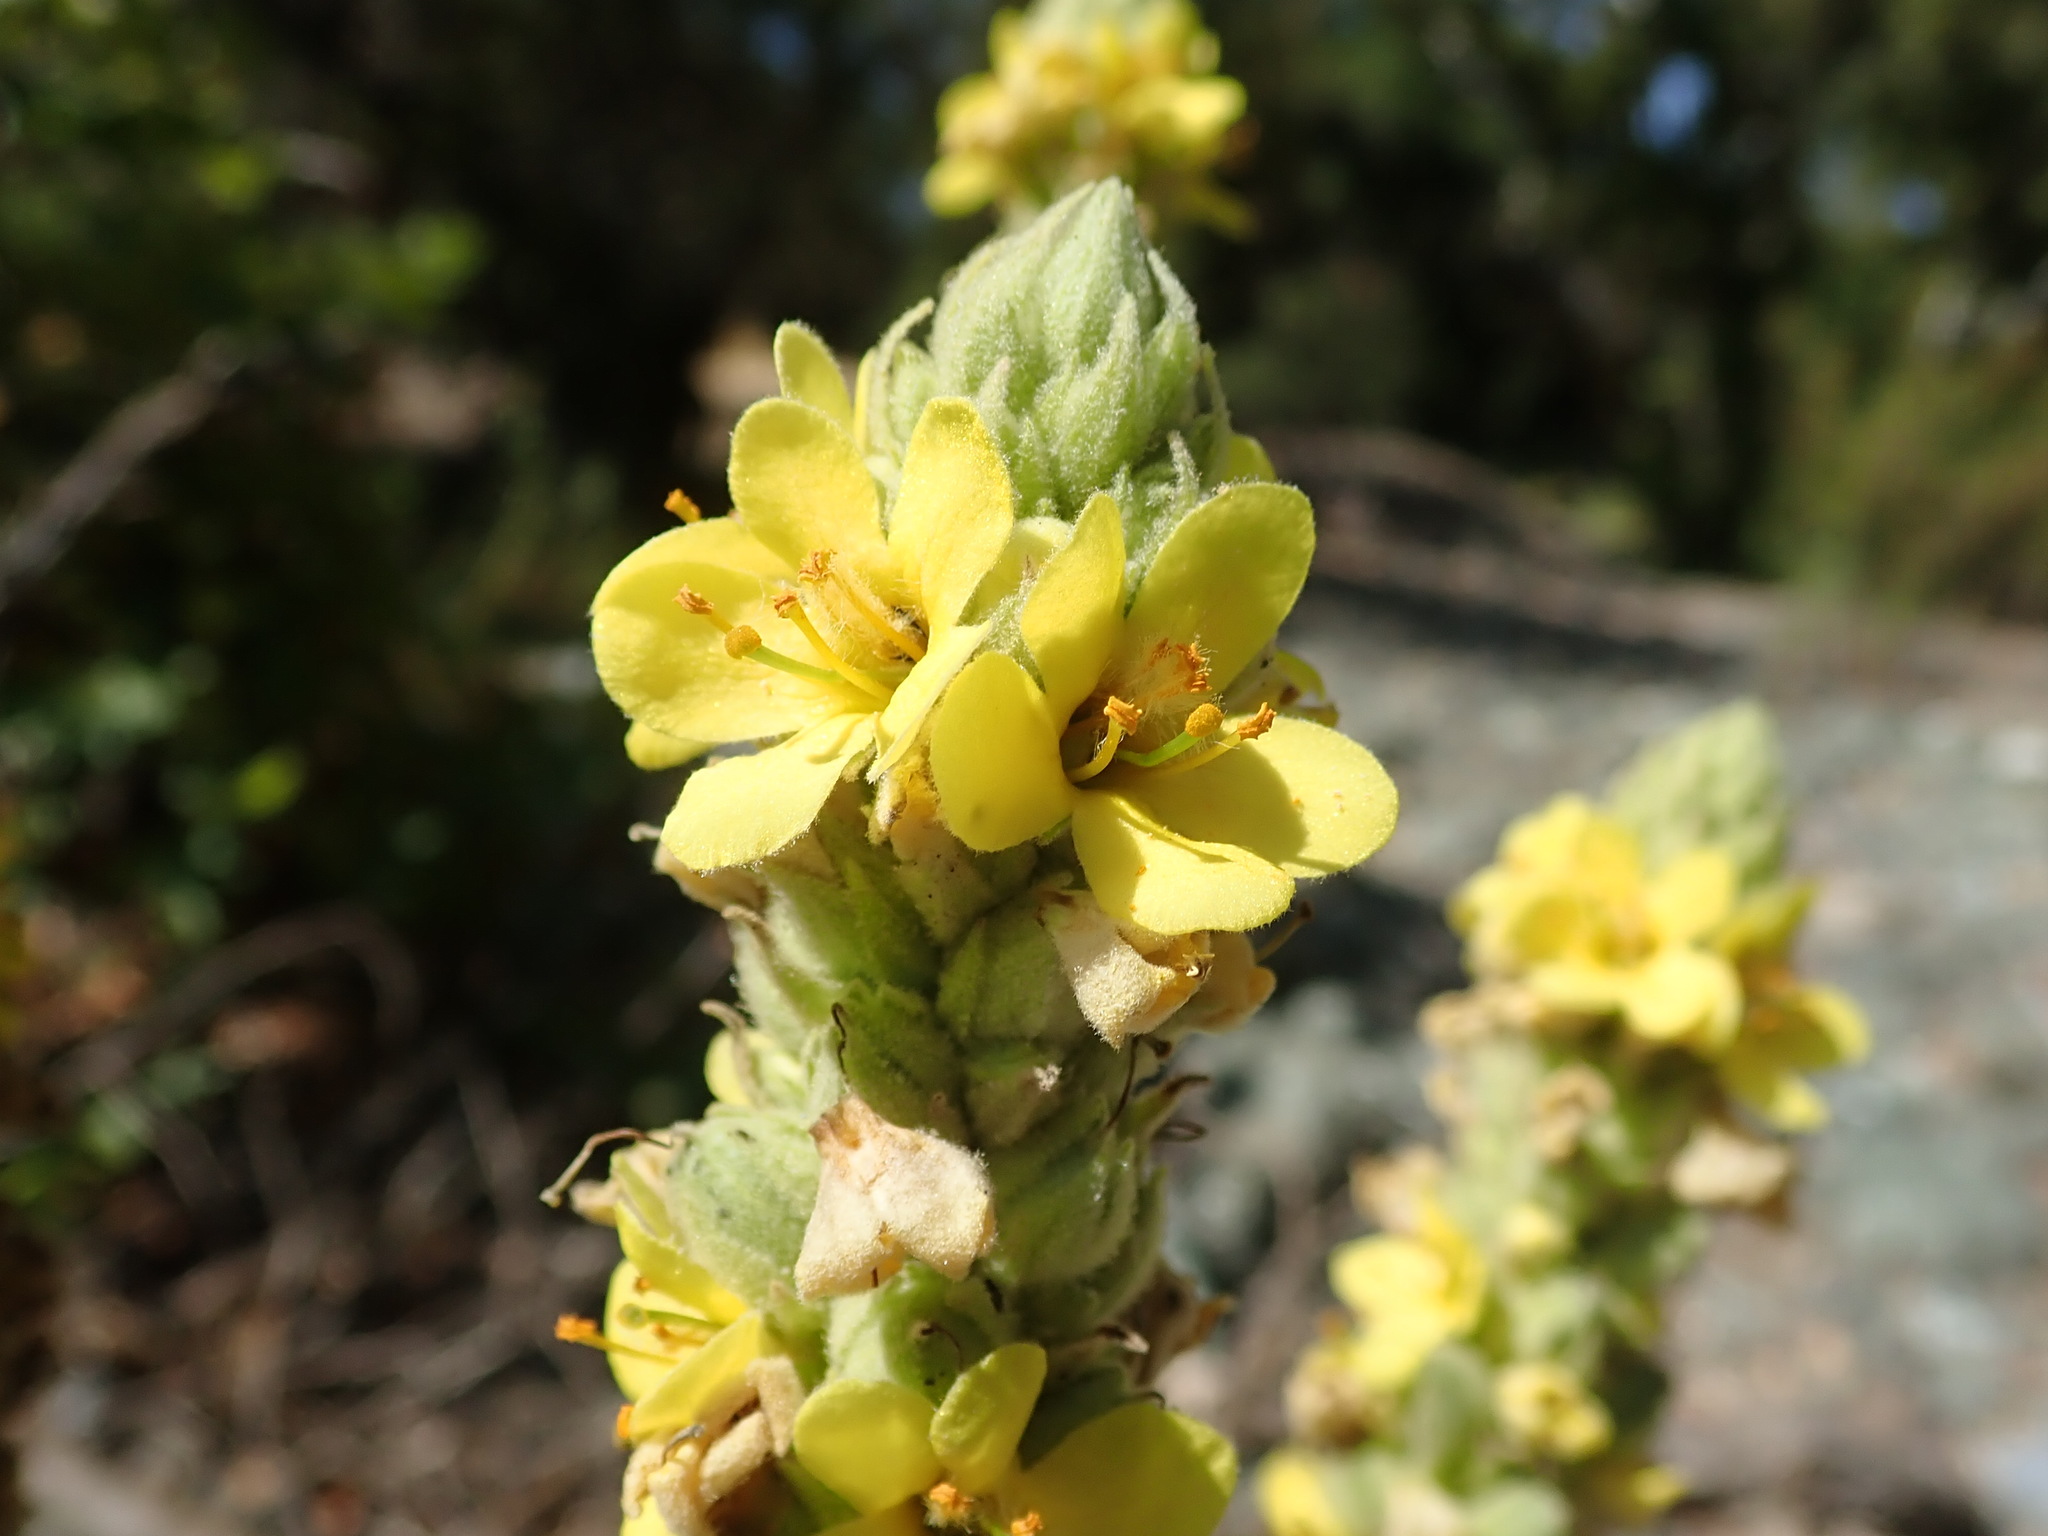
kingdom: Plantae
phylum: Tracheophyta
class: Magnoliopsida
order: Lamiales
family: Scrophulariaceae
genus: Verbascum
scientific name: Verbascum thapsus
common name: Common mullein
